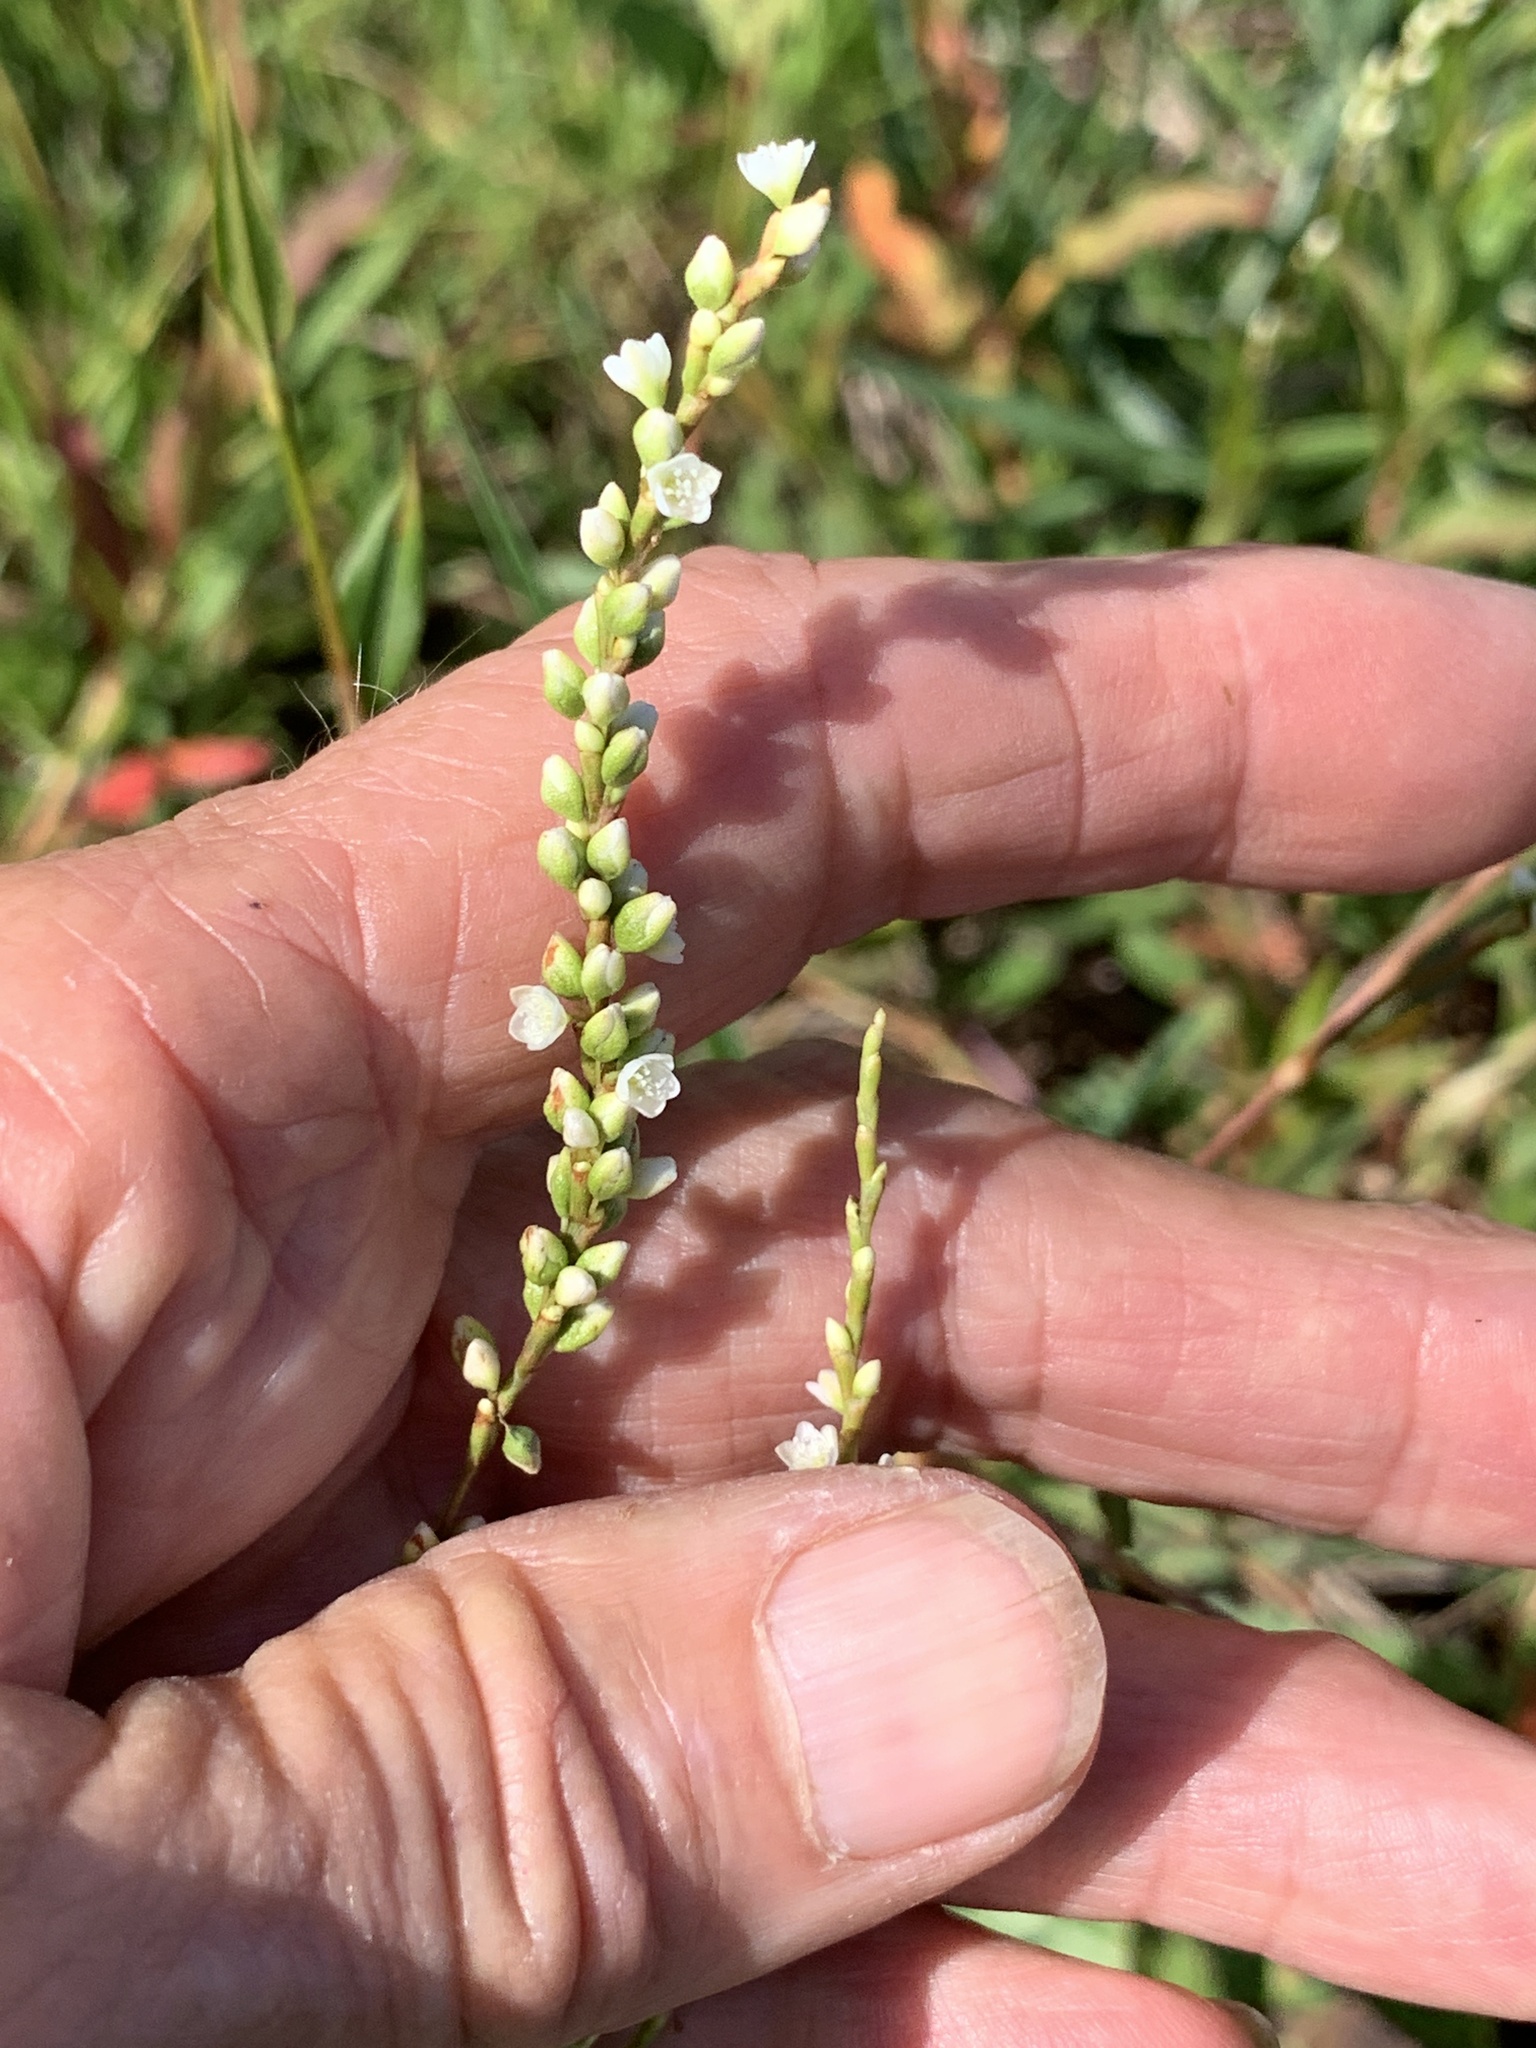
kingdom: Plantae
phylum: Tracheophyta
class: Magnoliopsida
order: Caryophyllales
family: Polygonaceae
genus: Persicaria
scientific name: Persicaria hydropiperoides
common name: Swamp smartweed
